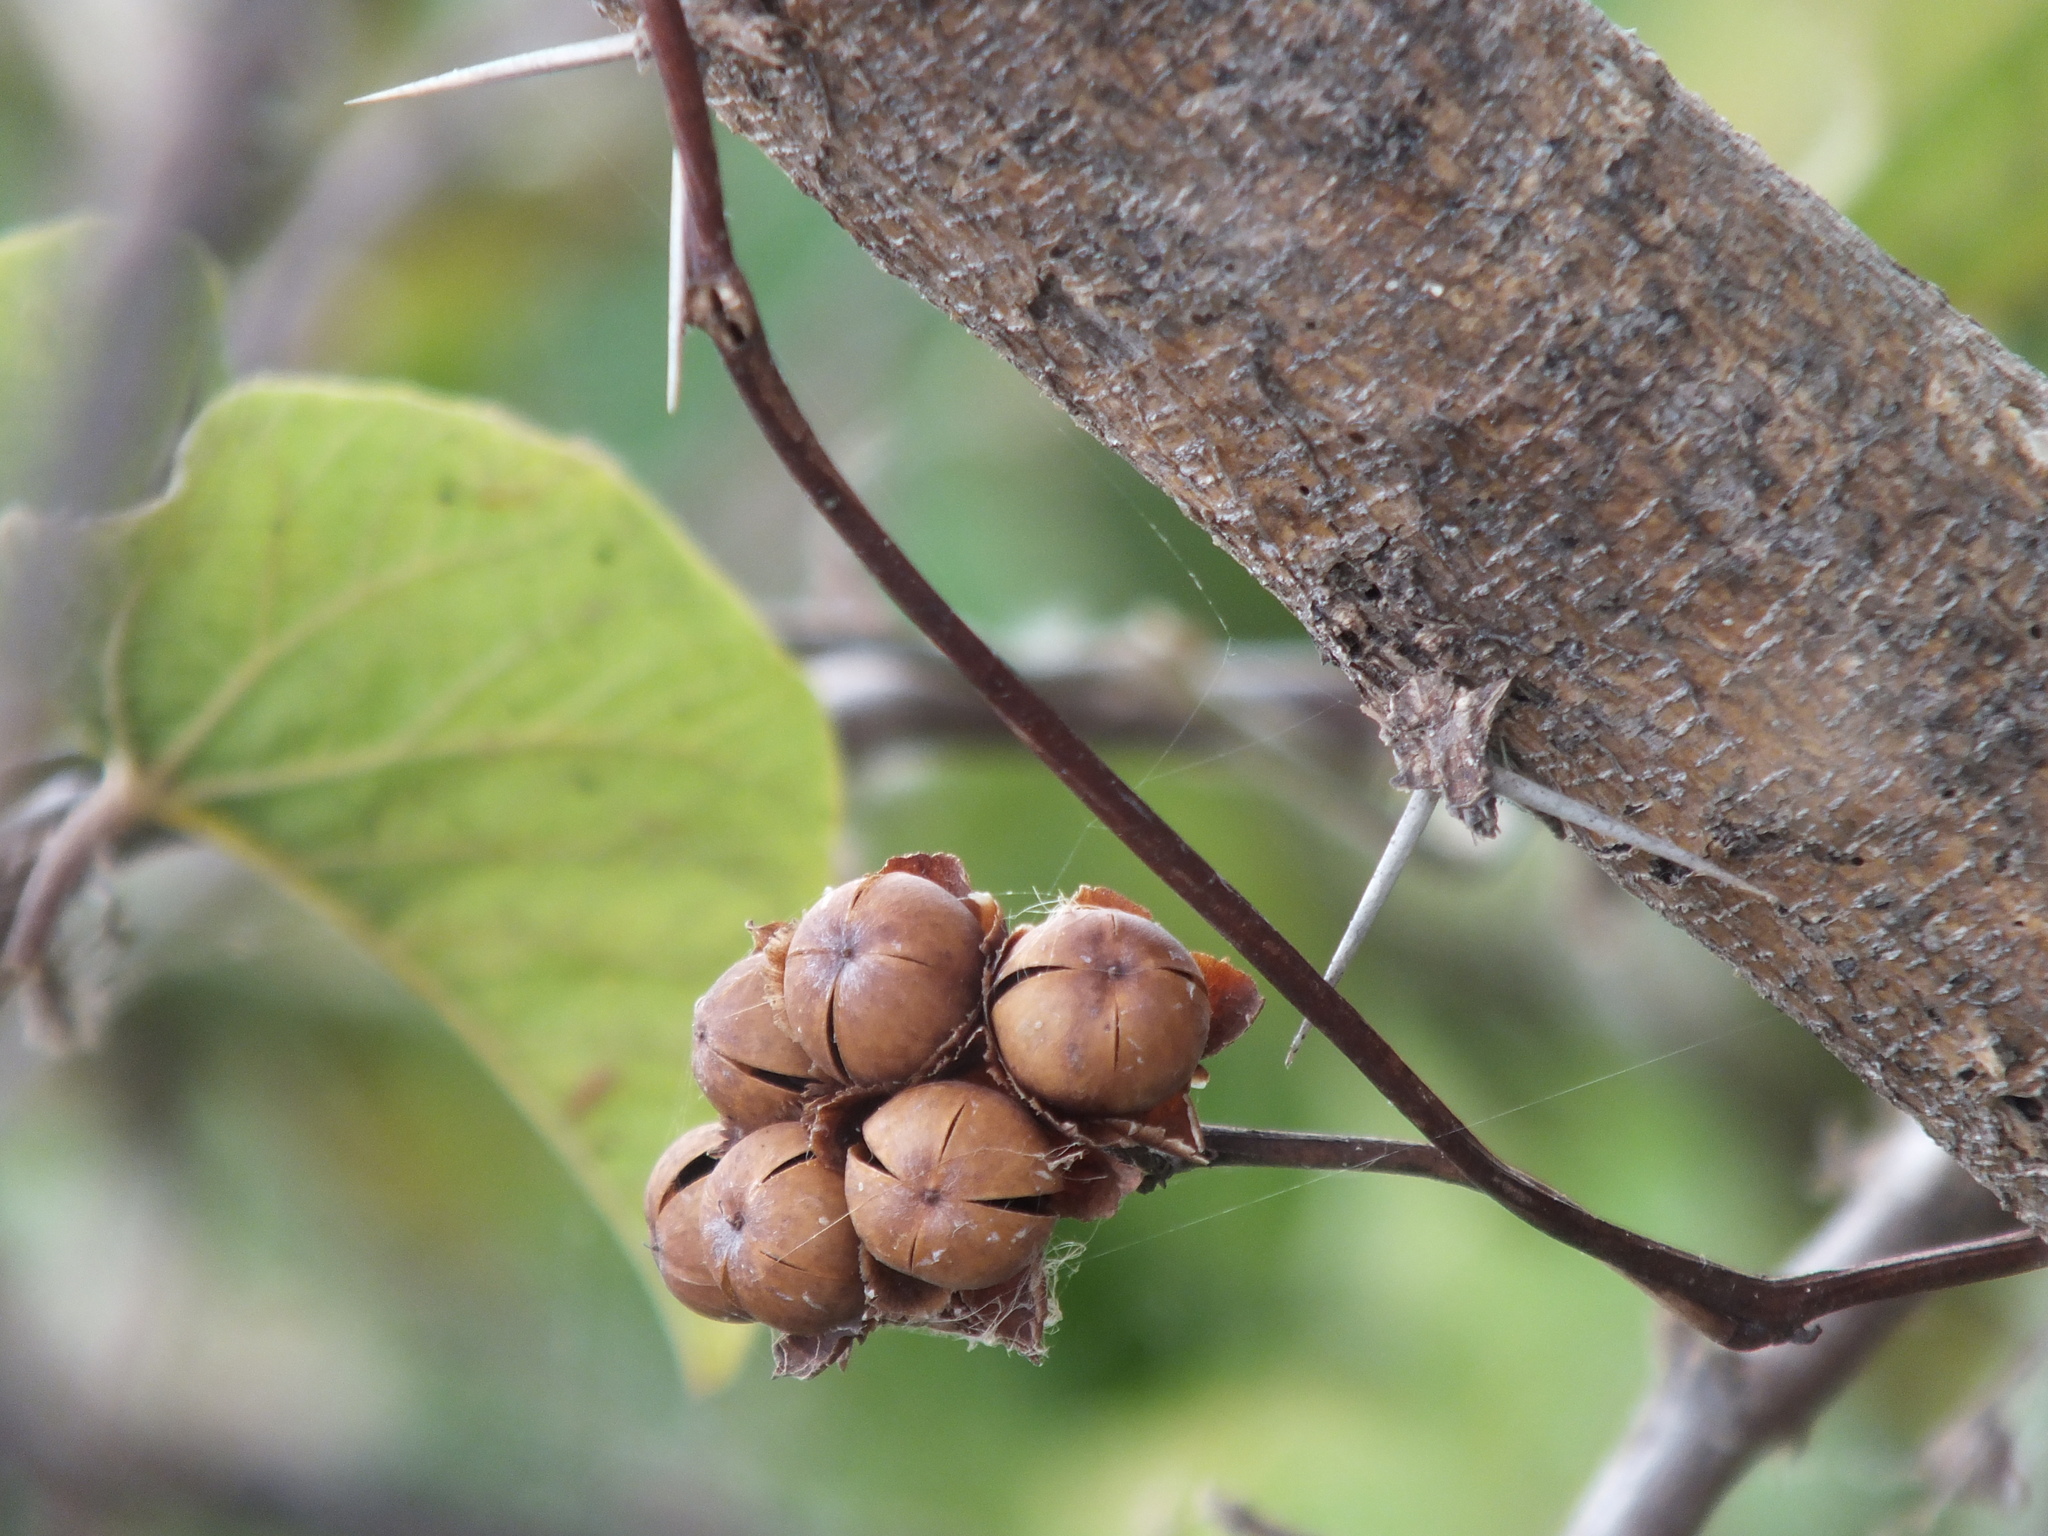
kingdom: Plantae
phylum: Tracheophyta
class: Magnoliopsida
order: Solanales
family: Convolvulaceae
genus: Camonea
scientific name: Camonea umbellata
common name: Hogvine
